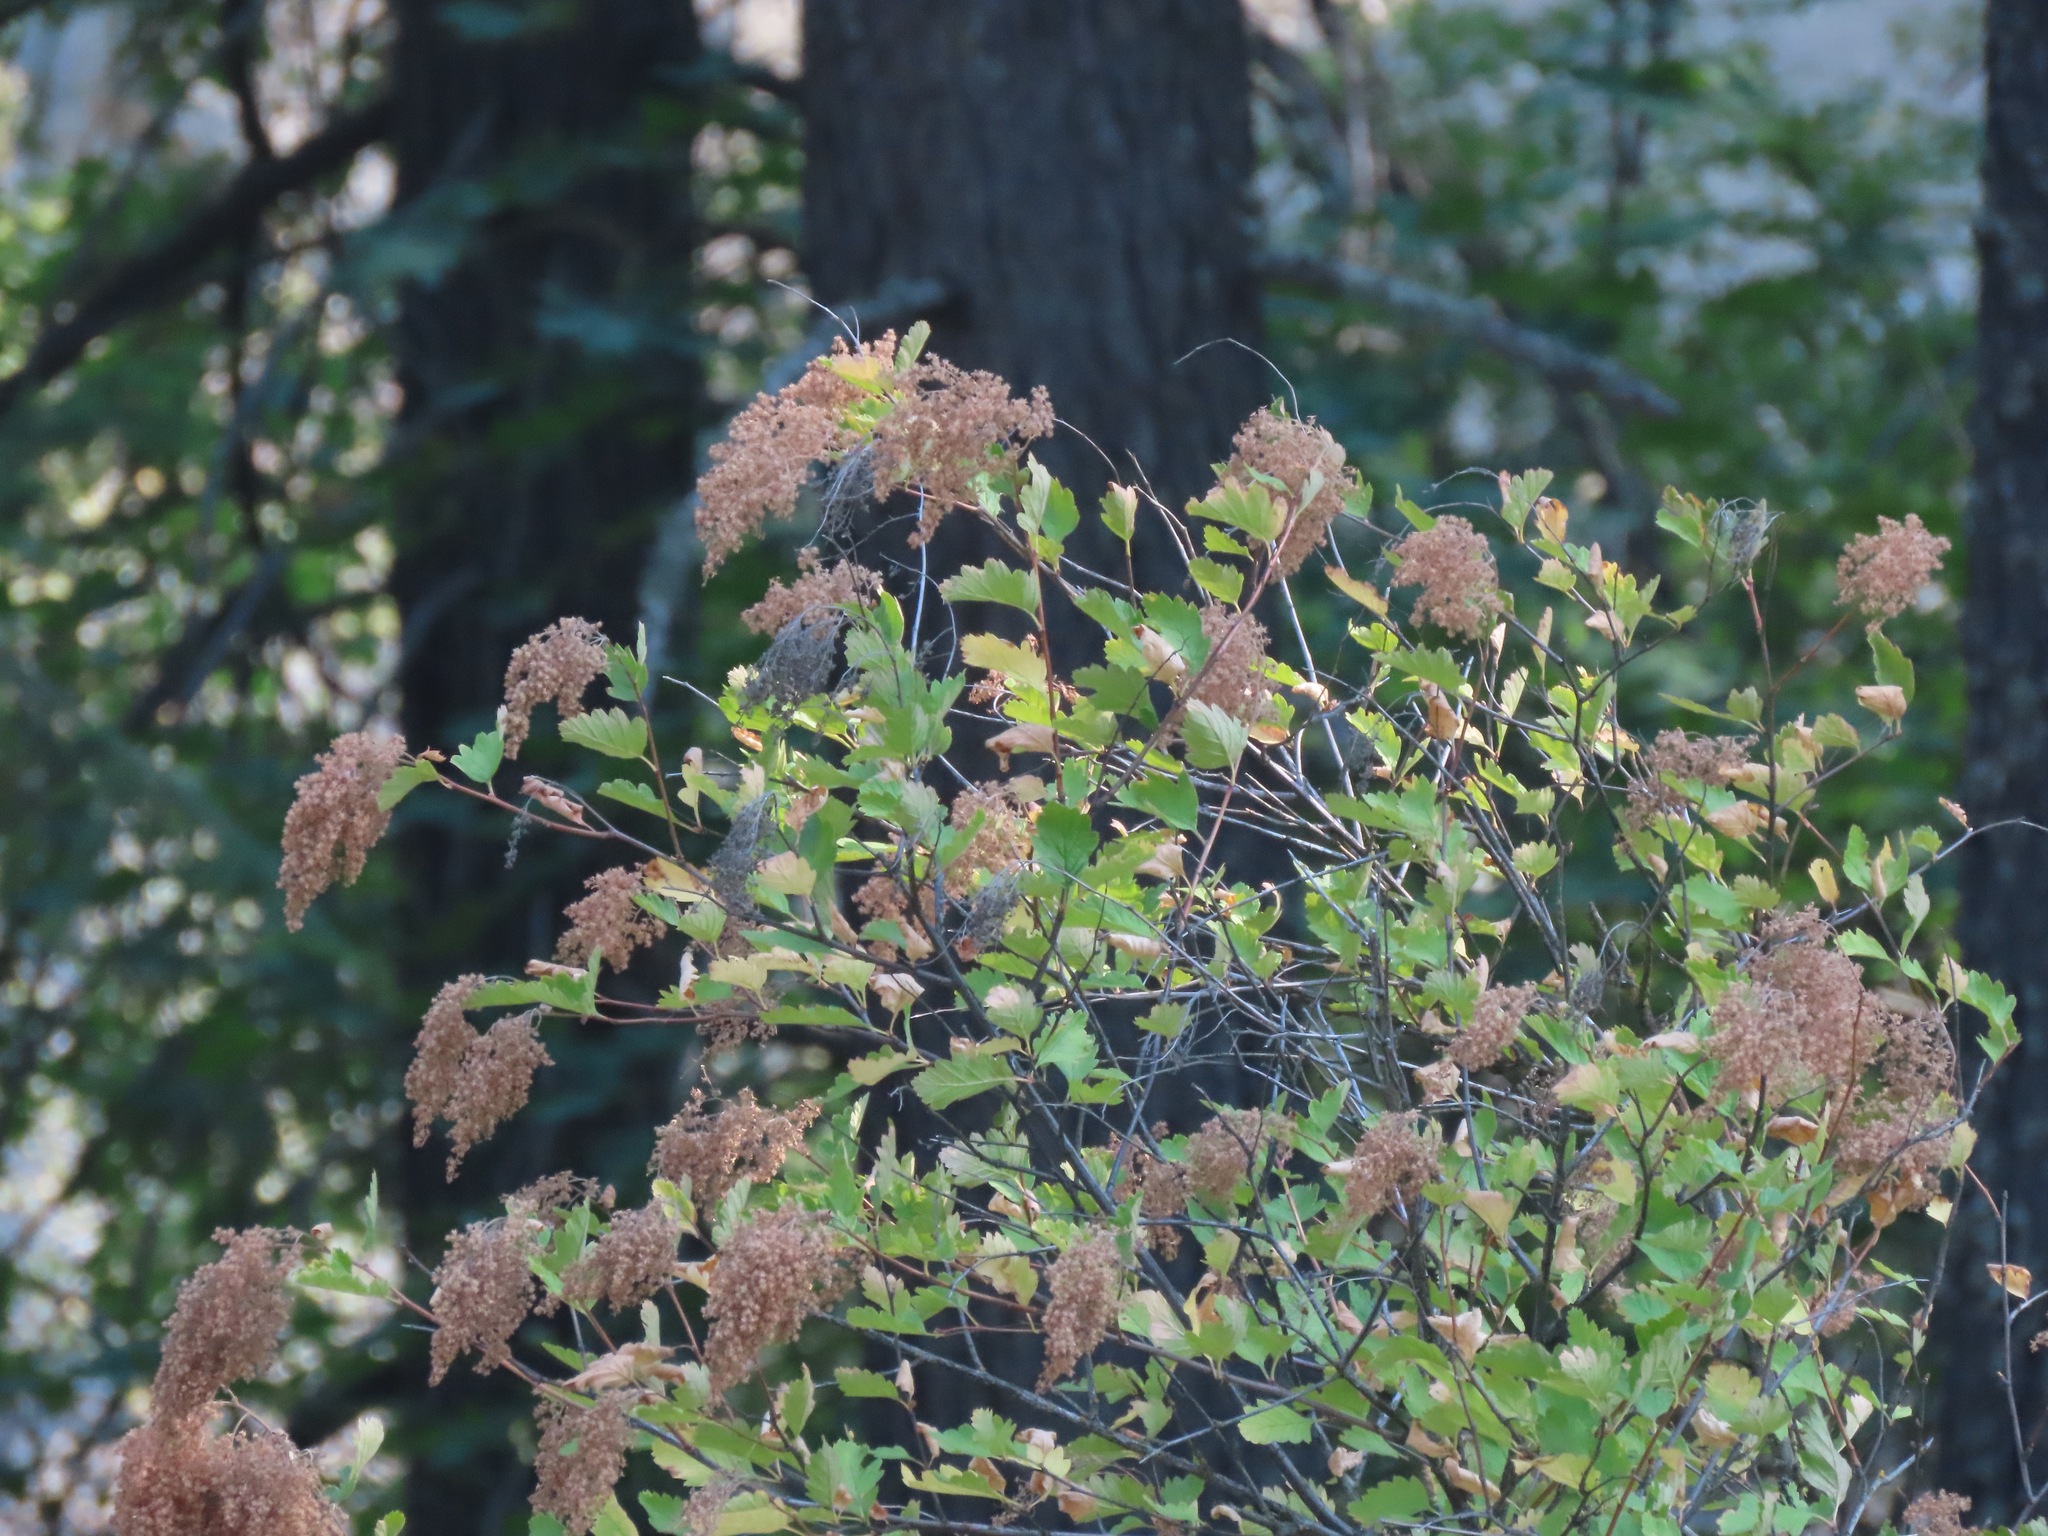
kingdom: Plantae
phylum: Tracheophyta
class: Magnoliopsida
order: Rosales
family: Rosaceae
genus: Holodiscus
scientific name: Holodiscus discolor
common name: Oceanspray
